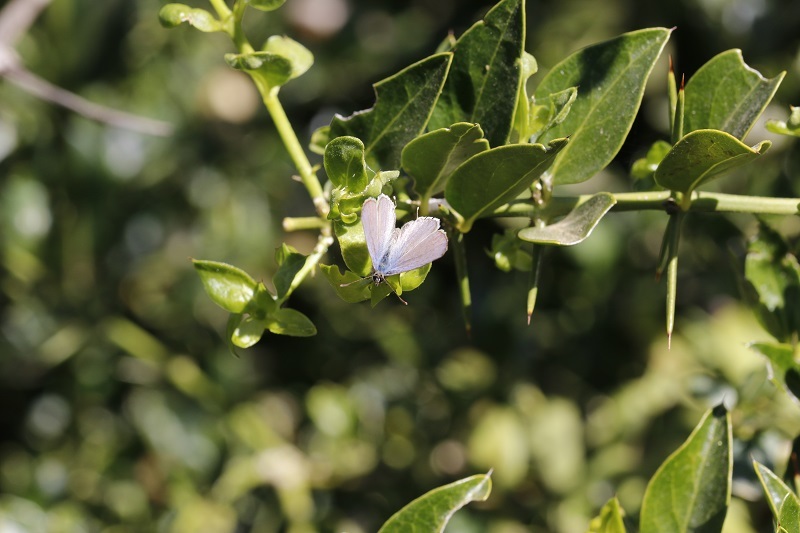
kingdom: Animalia
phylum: Arthropoda
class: Insecta
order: Lepidoptera
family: Lycaenidae
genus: Cacyreus
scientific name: Cacyreus lingeus
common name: Bush bronze
